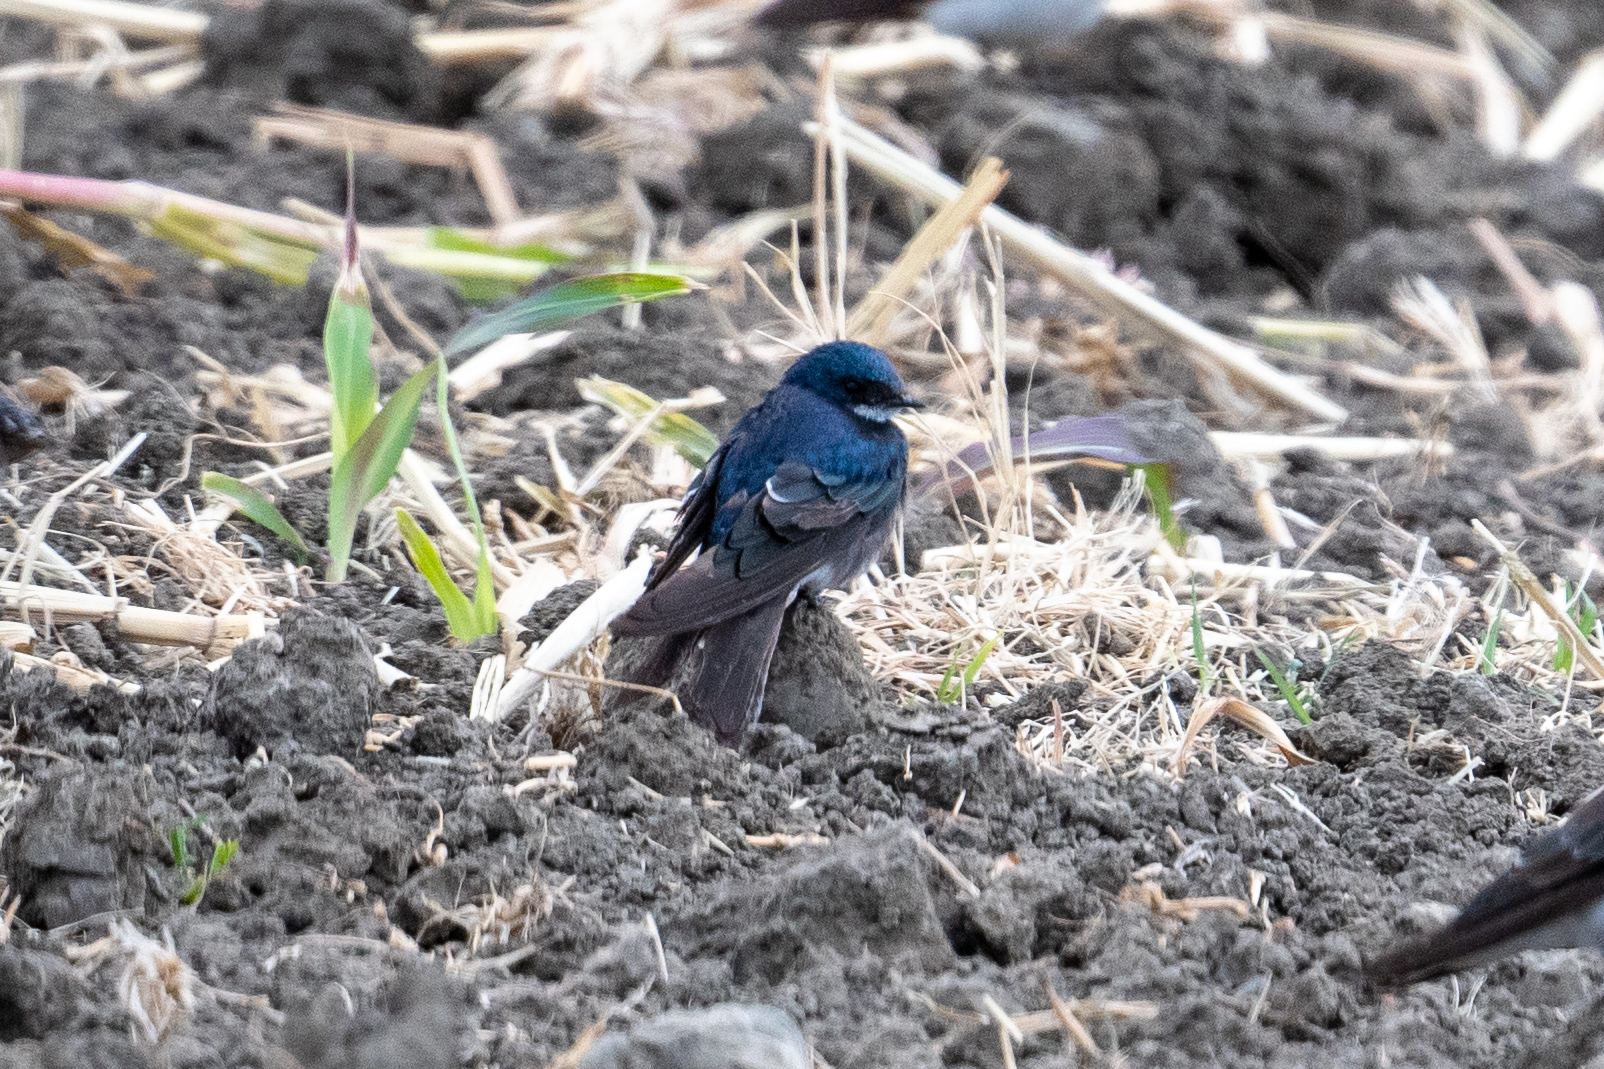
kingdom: Animalia
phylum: Chordata
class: Aves
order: Passeriformes
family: Hirundinidae
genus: Tachycineta
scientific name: Tachycineta bicolor
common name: Tree swallow
